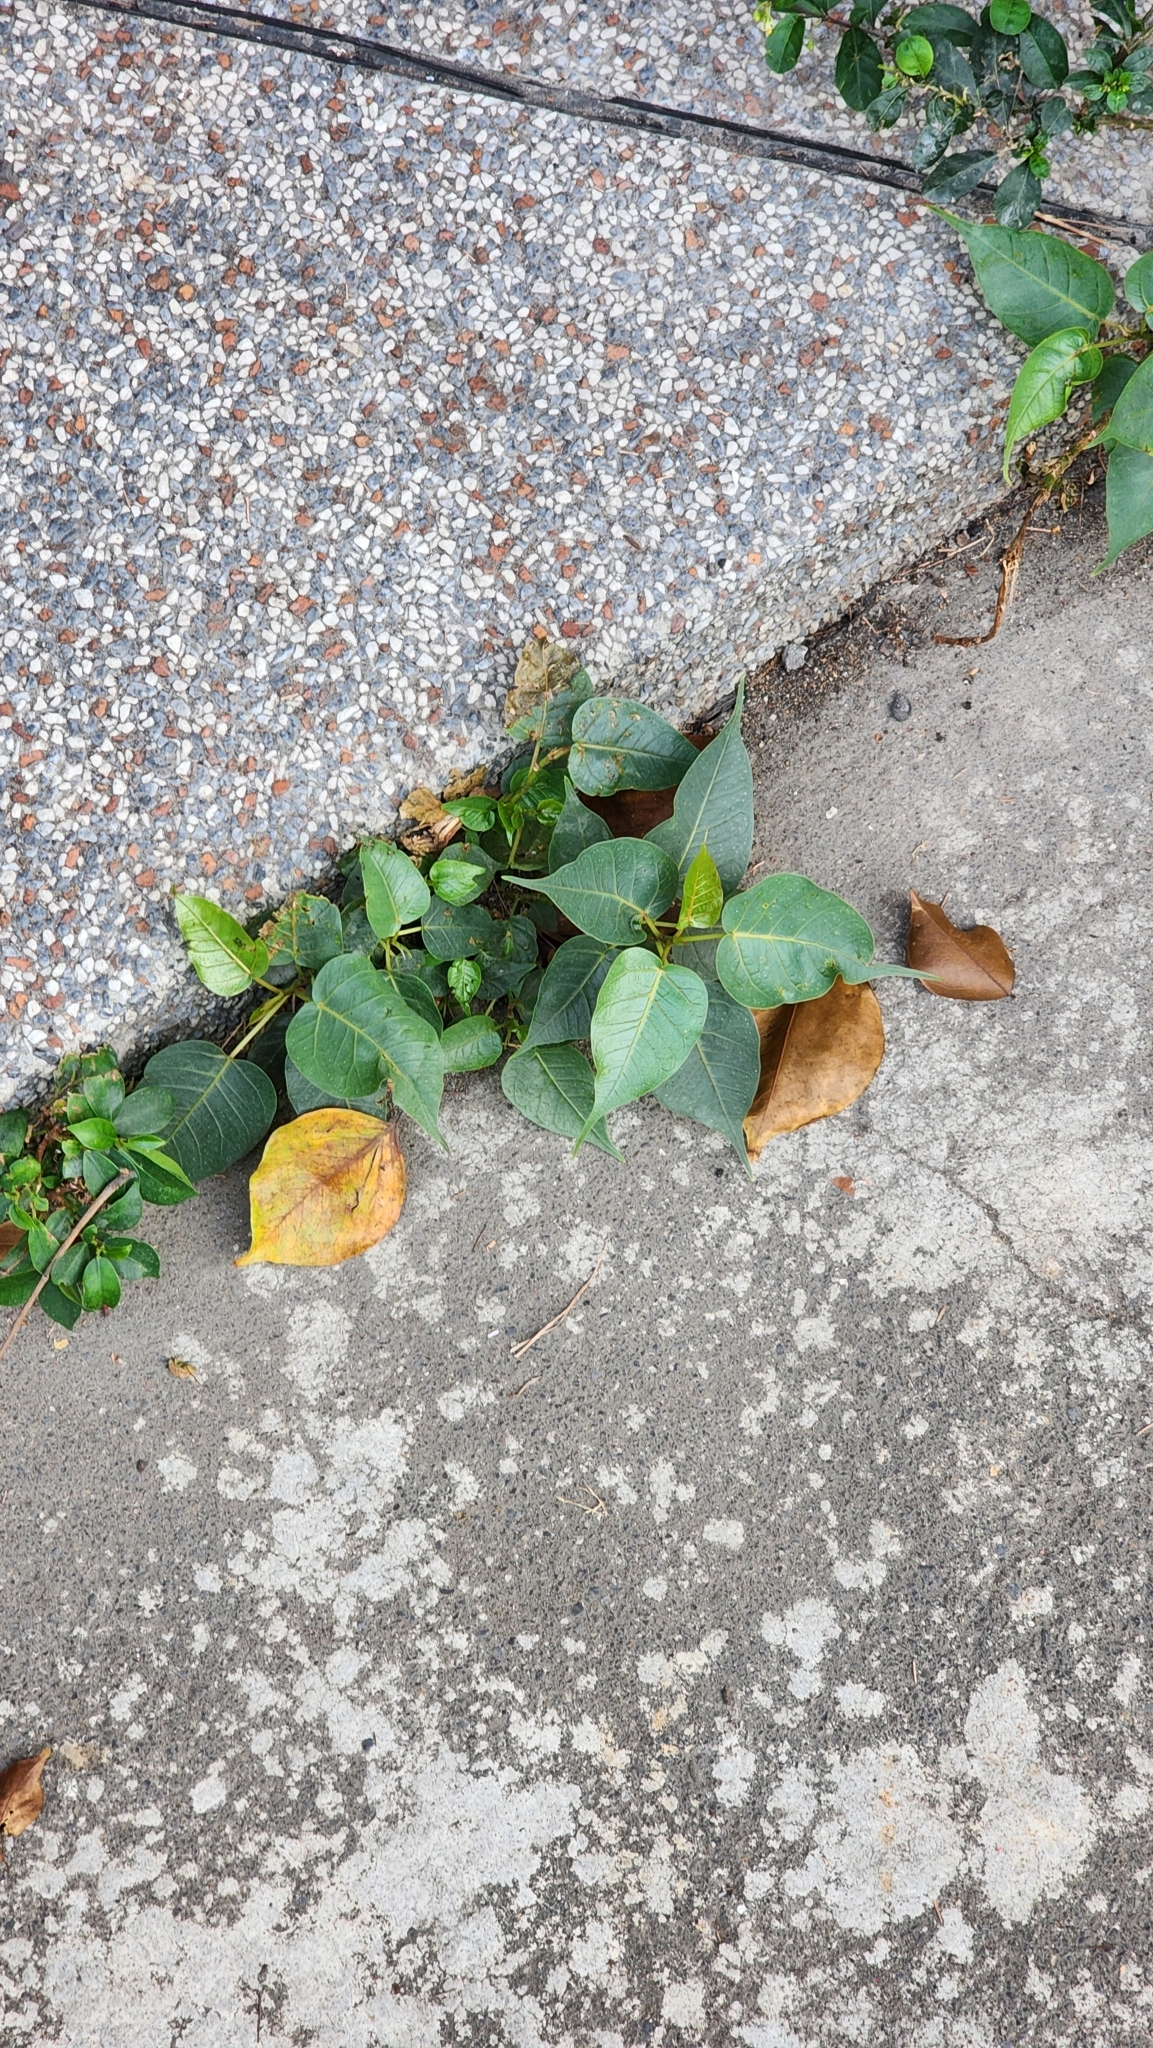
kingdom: Plantae
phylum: Tracheophyta
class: Magnoliopsida
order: Rosales
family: Moraceae
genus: Ficus
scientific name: Ficus religiosa
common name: Bodhi tree
